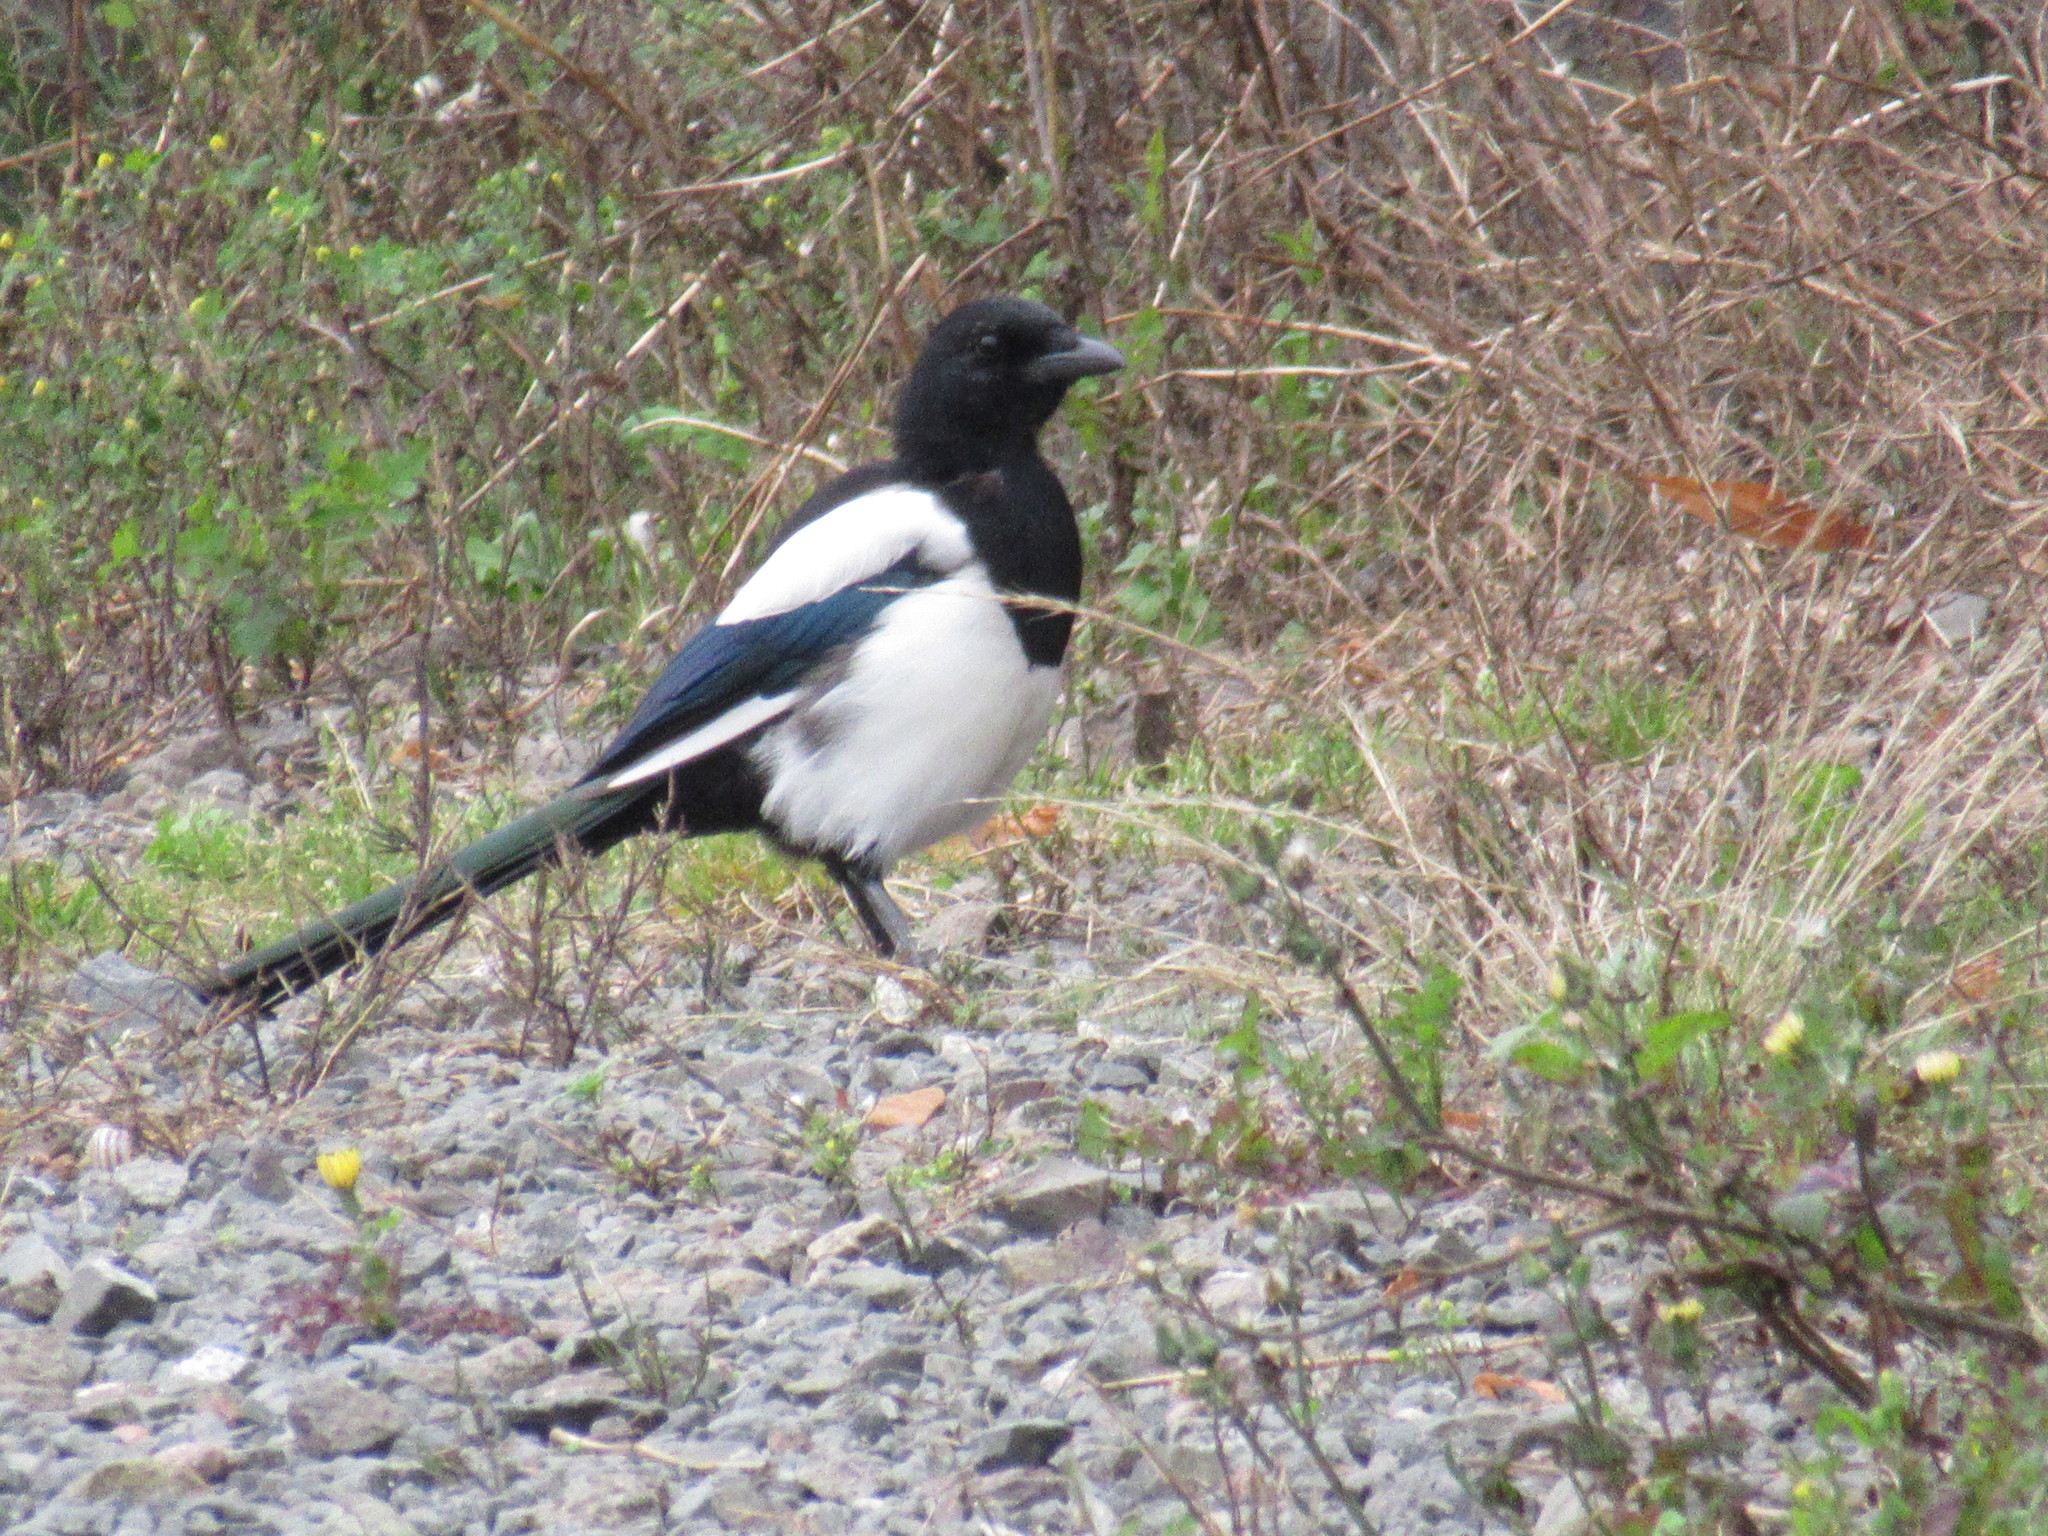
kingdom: Animalia
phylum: Chordata
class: Aves
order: Passeriformes
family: Corvidae
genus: Pica
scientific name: Pica pica
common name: Eurasian magpie
